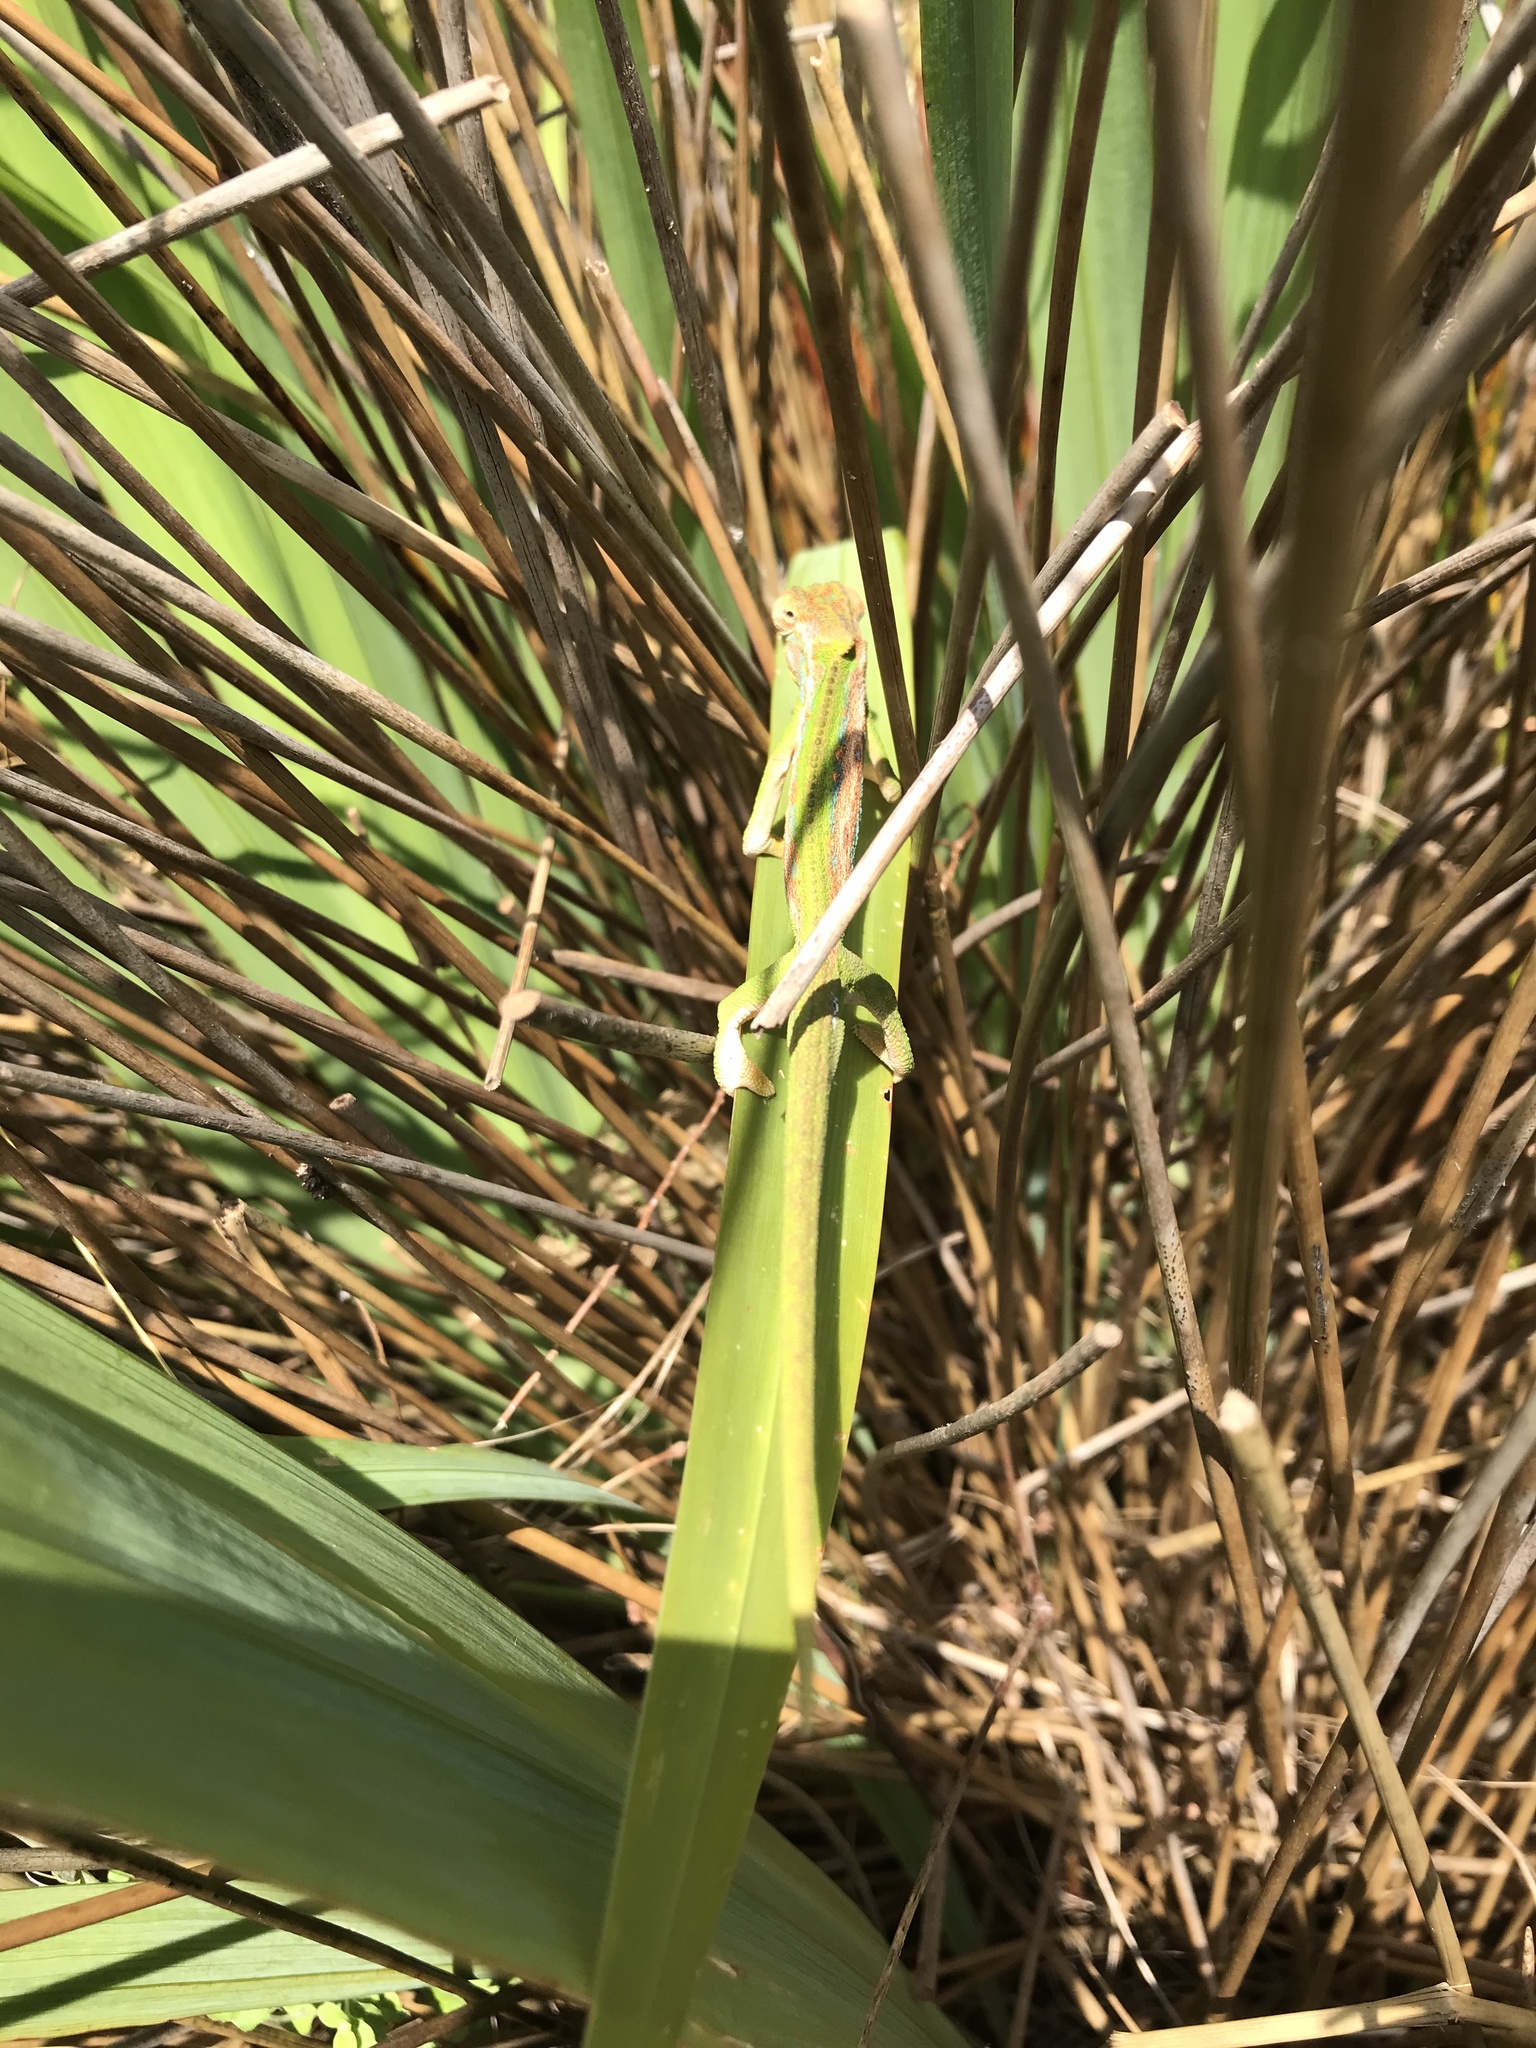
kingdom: Animalia
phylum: Chordata
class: Squamata
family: Chamaeleonidae
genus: Bradypodion
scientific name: Bradypodion pumilum
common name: Cape dwarf chameleon
